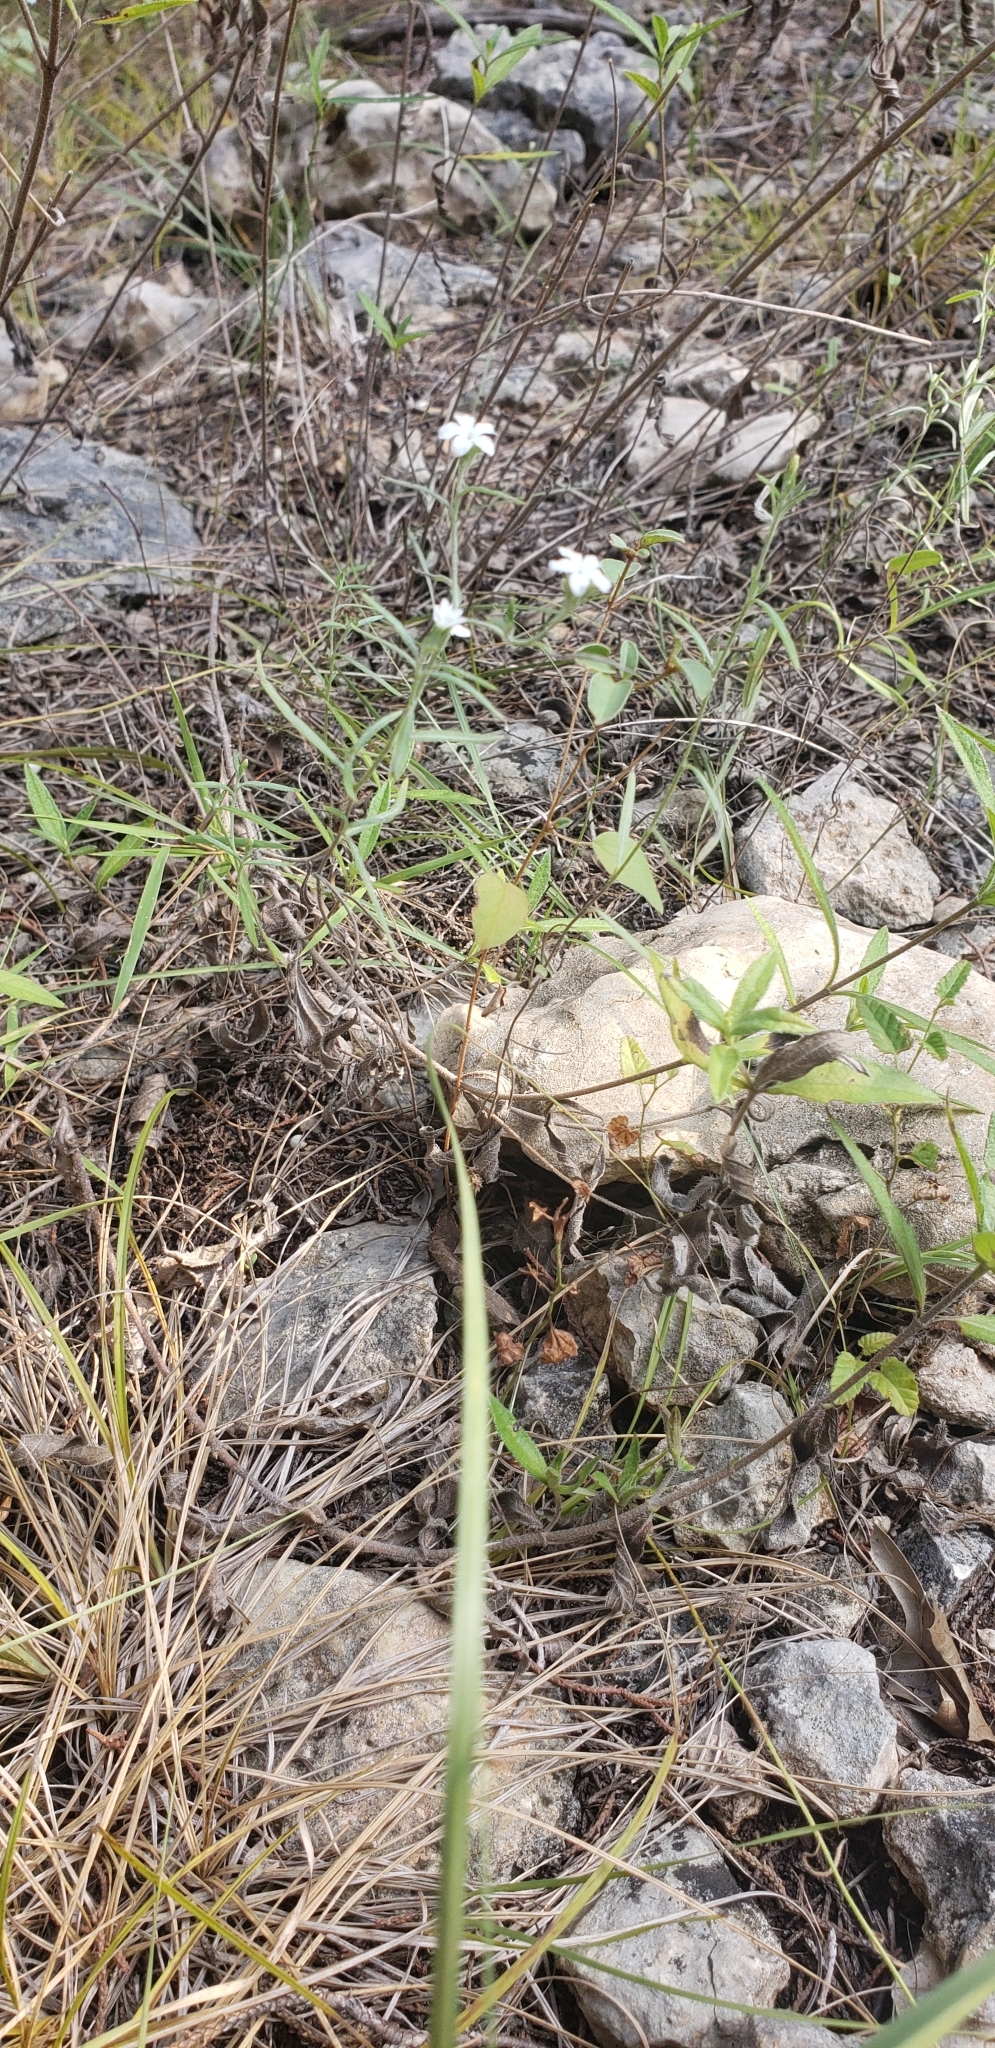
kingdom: Plantae
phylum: Tracheophyta
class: Magnoliopsida
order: Boraginales
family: Heliotropiaceae
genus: Euploca
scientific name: Euploca tenella
